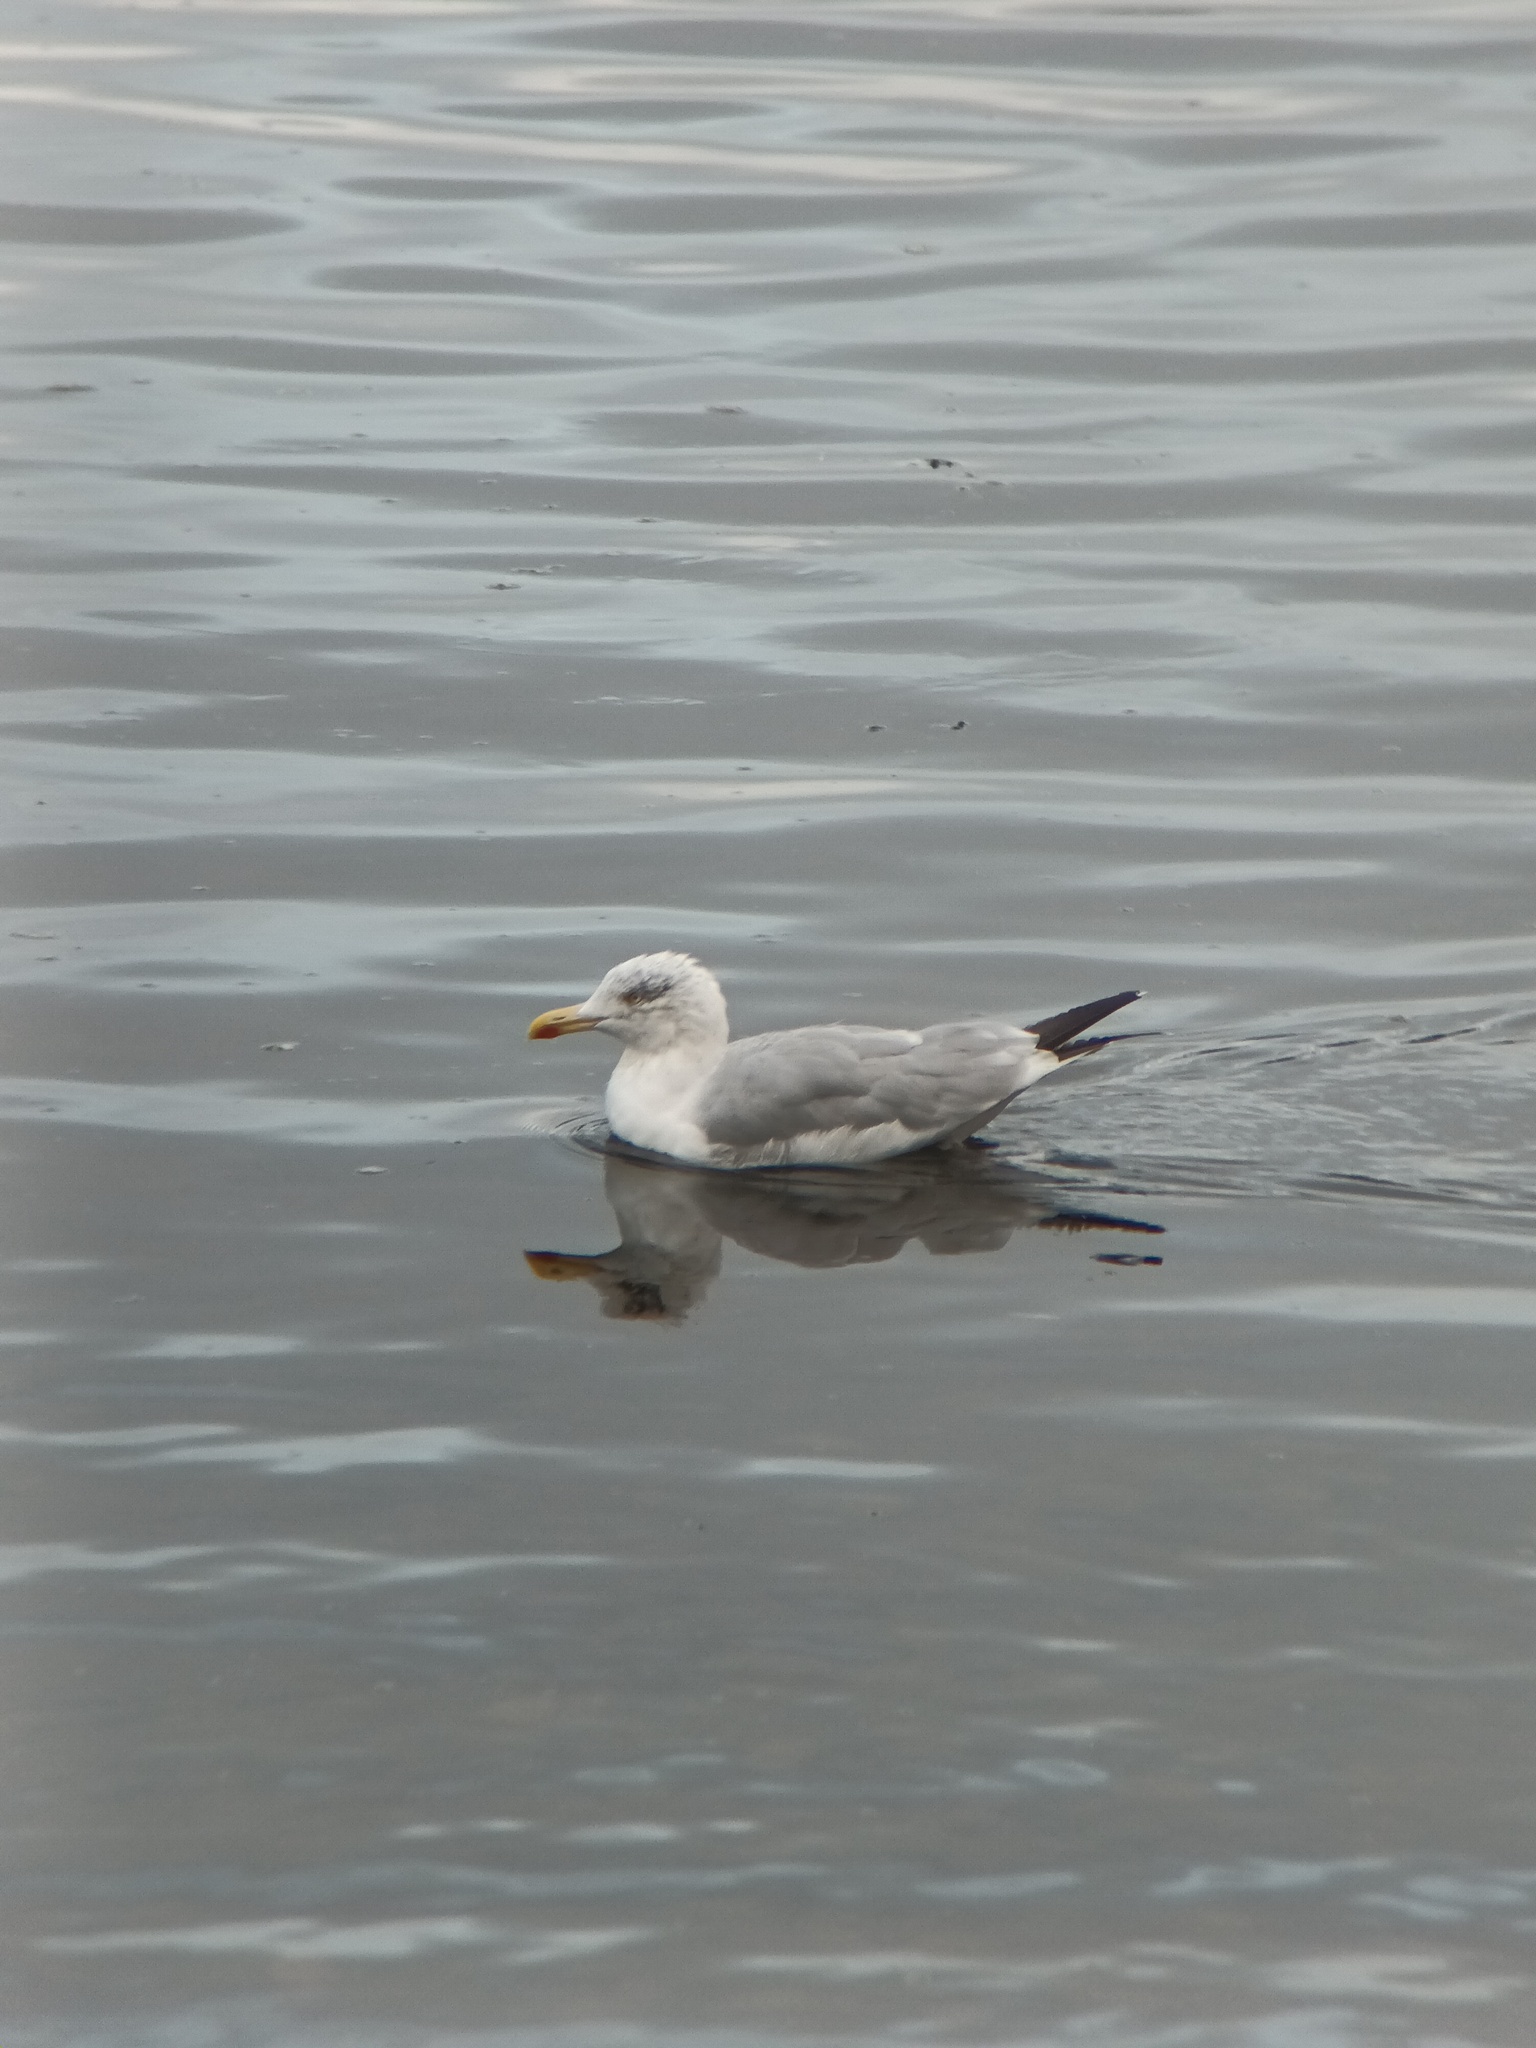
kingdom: Animalia
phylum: Chordata
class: Aves
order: Charadriiformes
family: Laridae
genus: Larus
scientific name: Larus argentatus
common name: Herring gull
